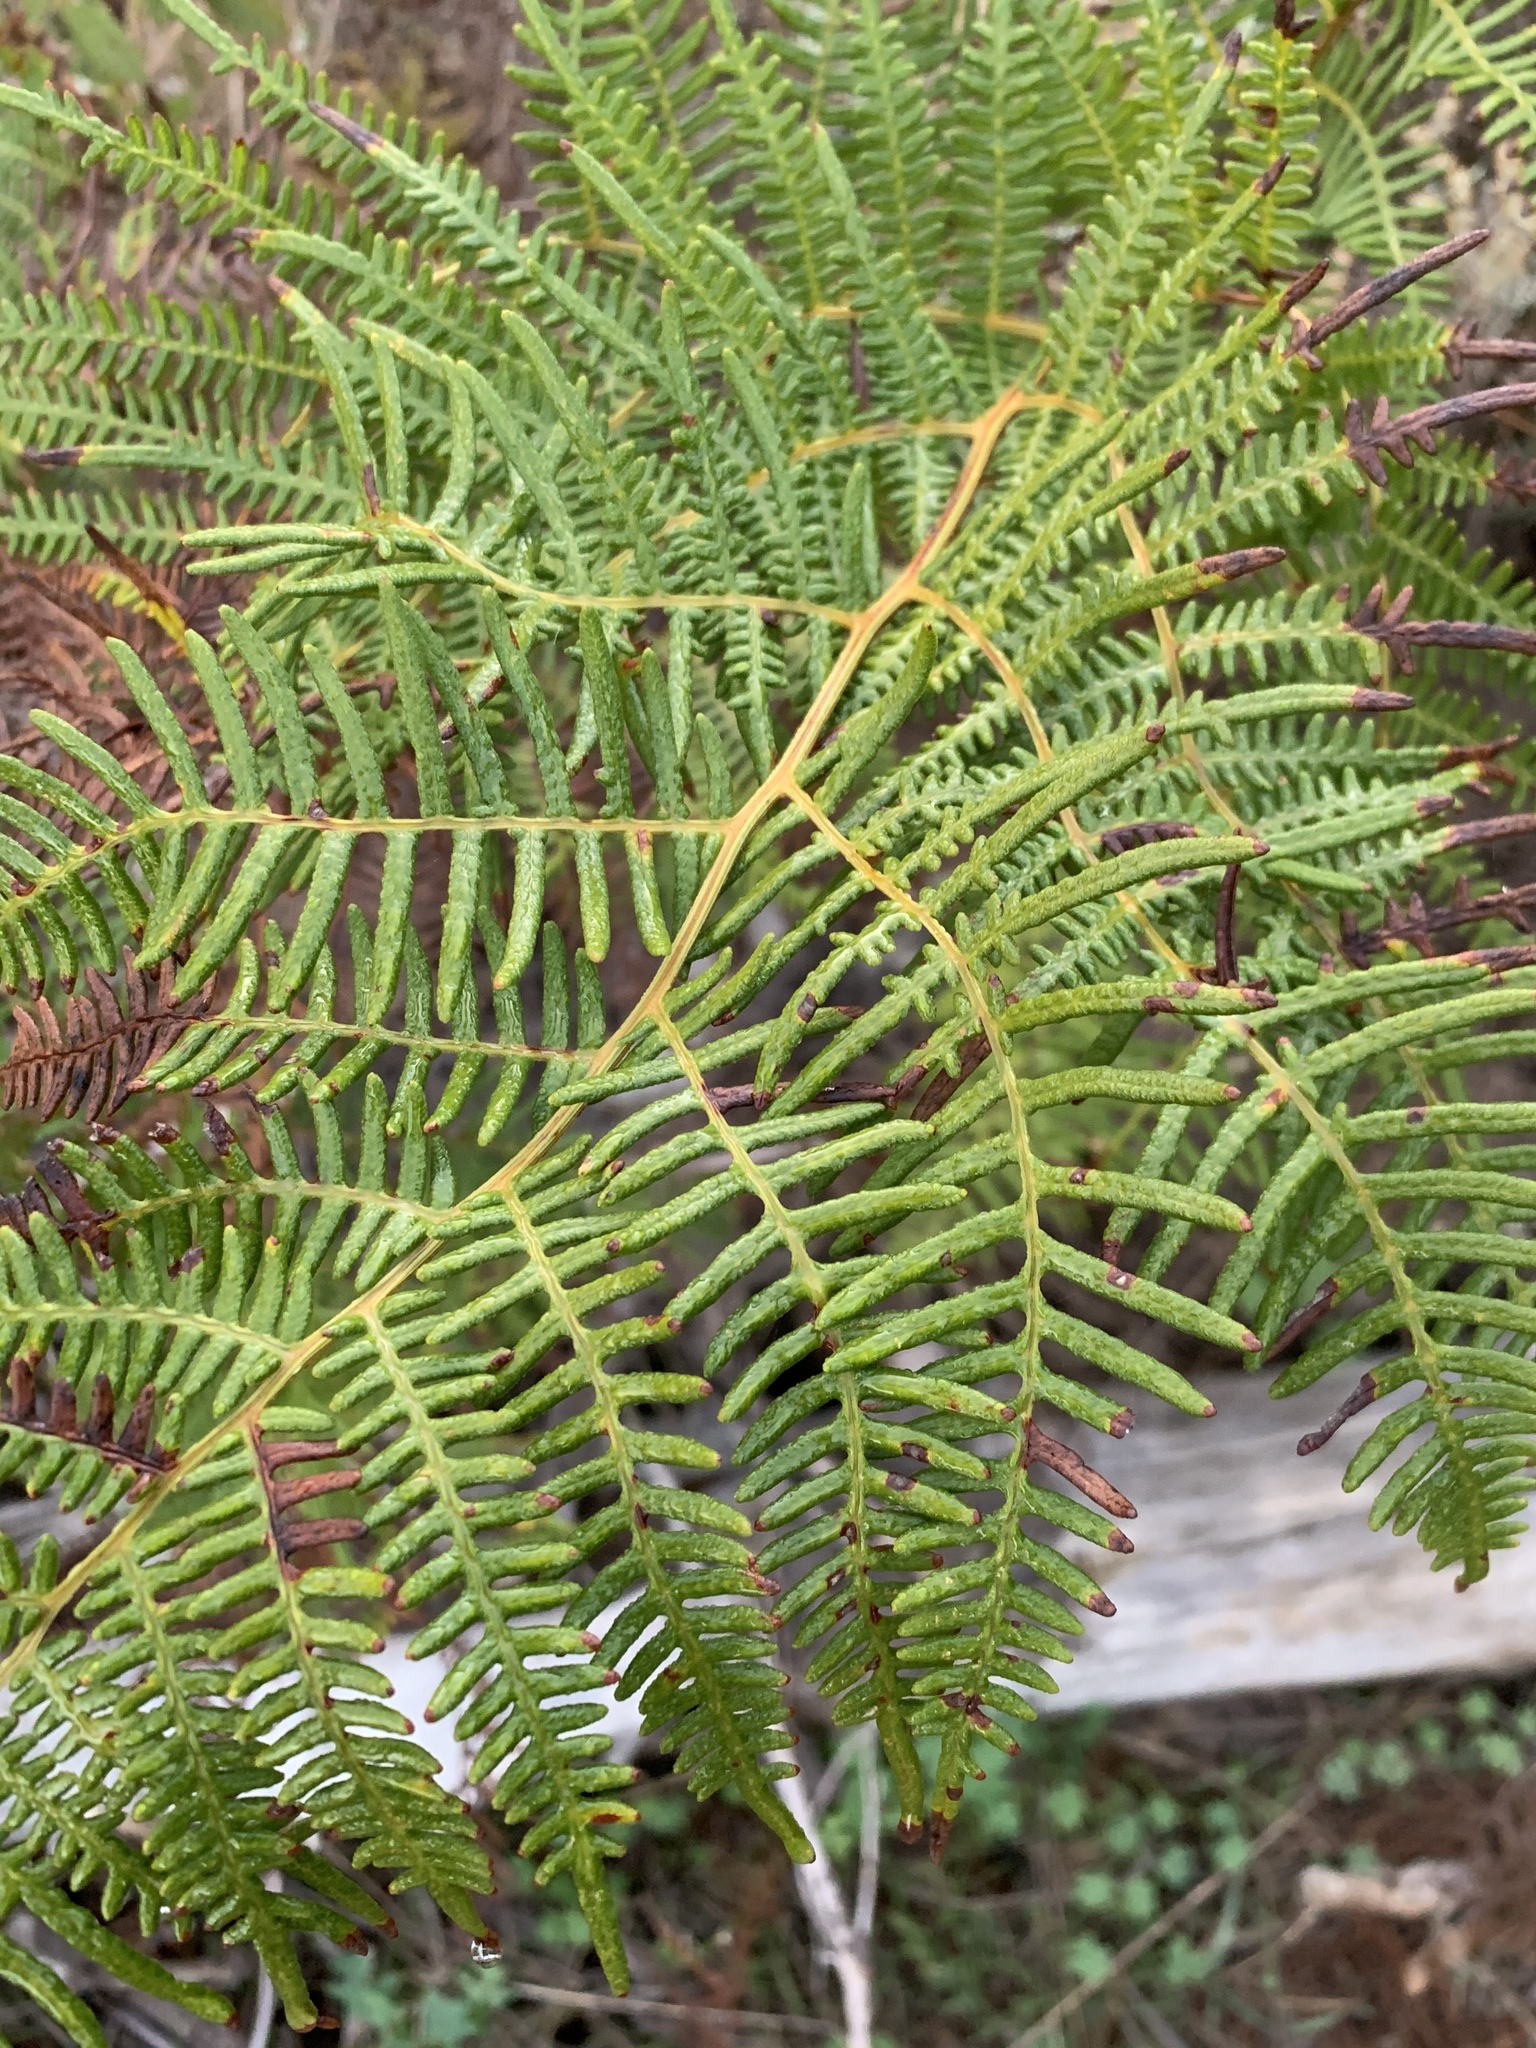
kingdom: Plantae
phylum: Tracheophyta
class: Polypodiopsida
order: Polypodiales
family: Dennstaedtiaceae
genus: Pteridium
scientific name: Pteridium aquilinum
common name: Bracken
